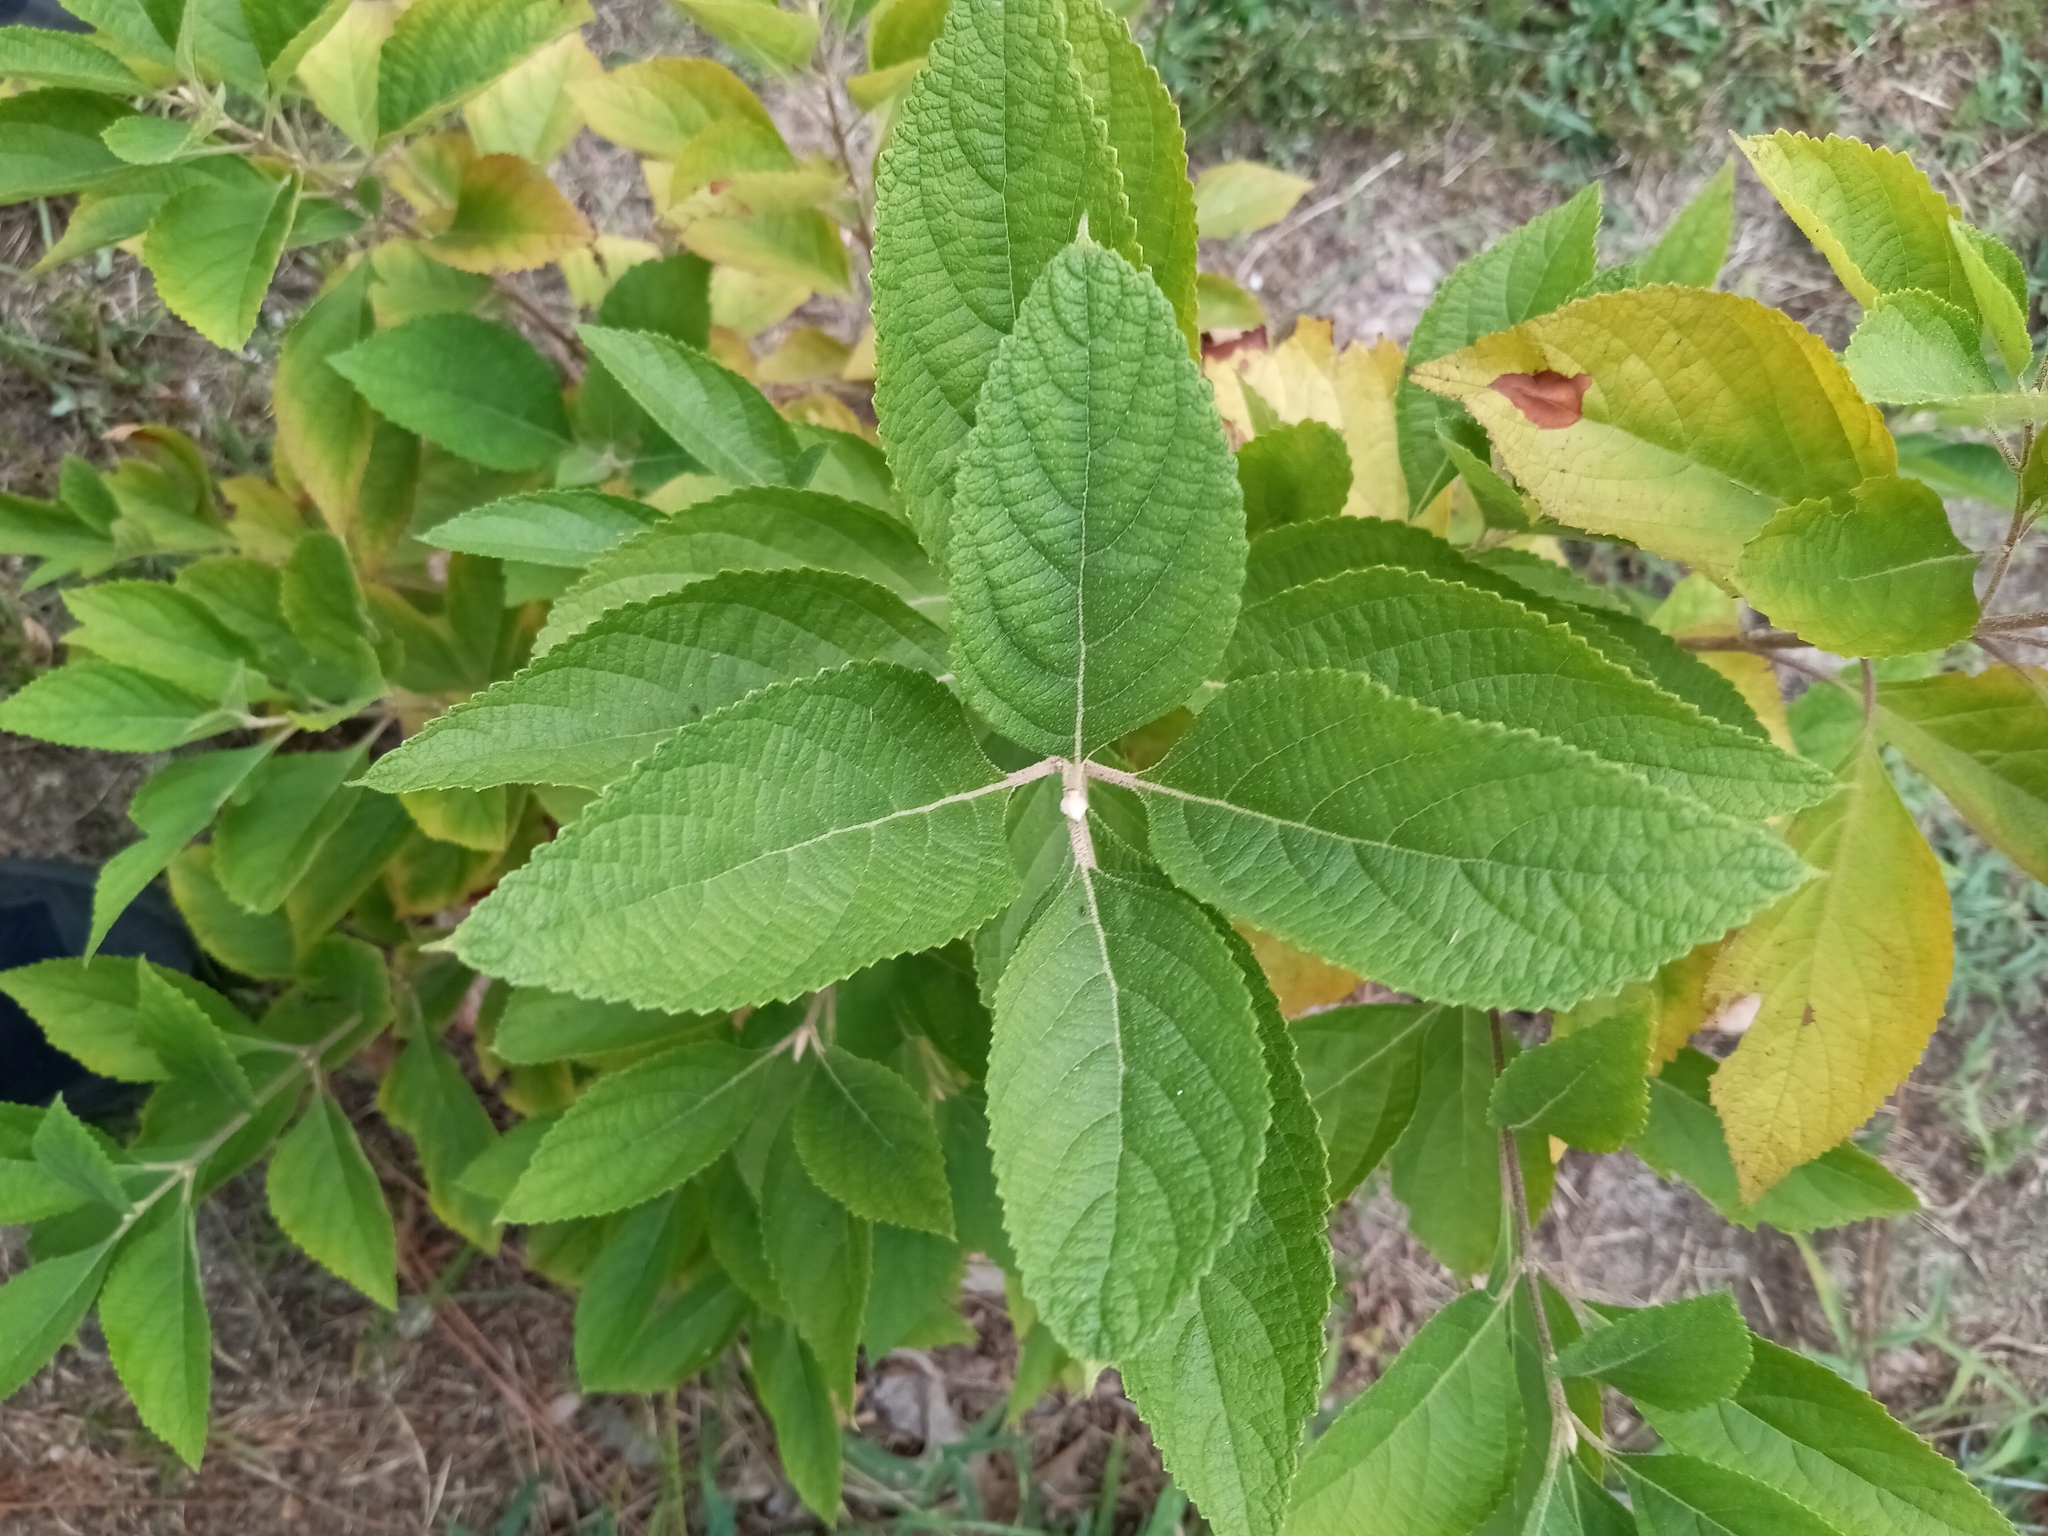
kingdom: Plantae
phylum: Tracheophyta
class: Magnoliopsida
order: Lamiales
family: Lamiaceae
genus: Callicarpa
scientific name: Callicarpa americana
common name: American beautyberry
